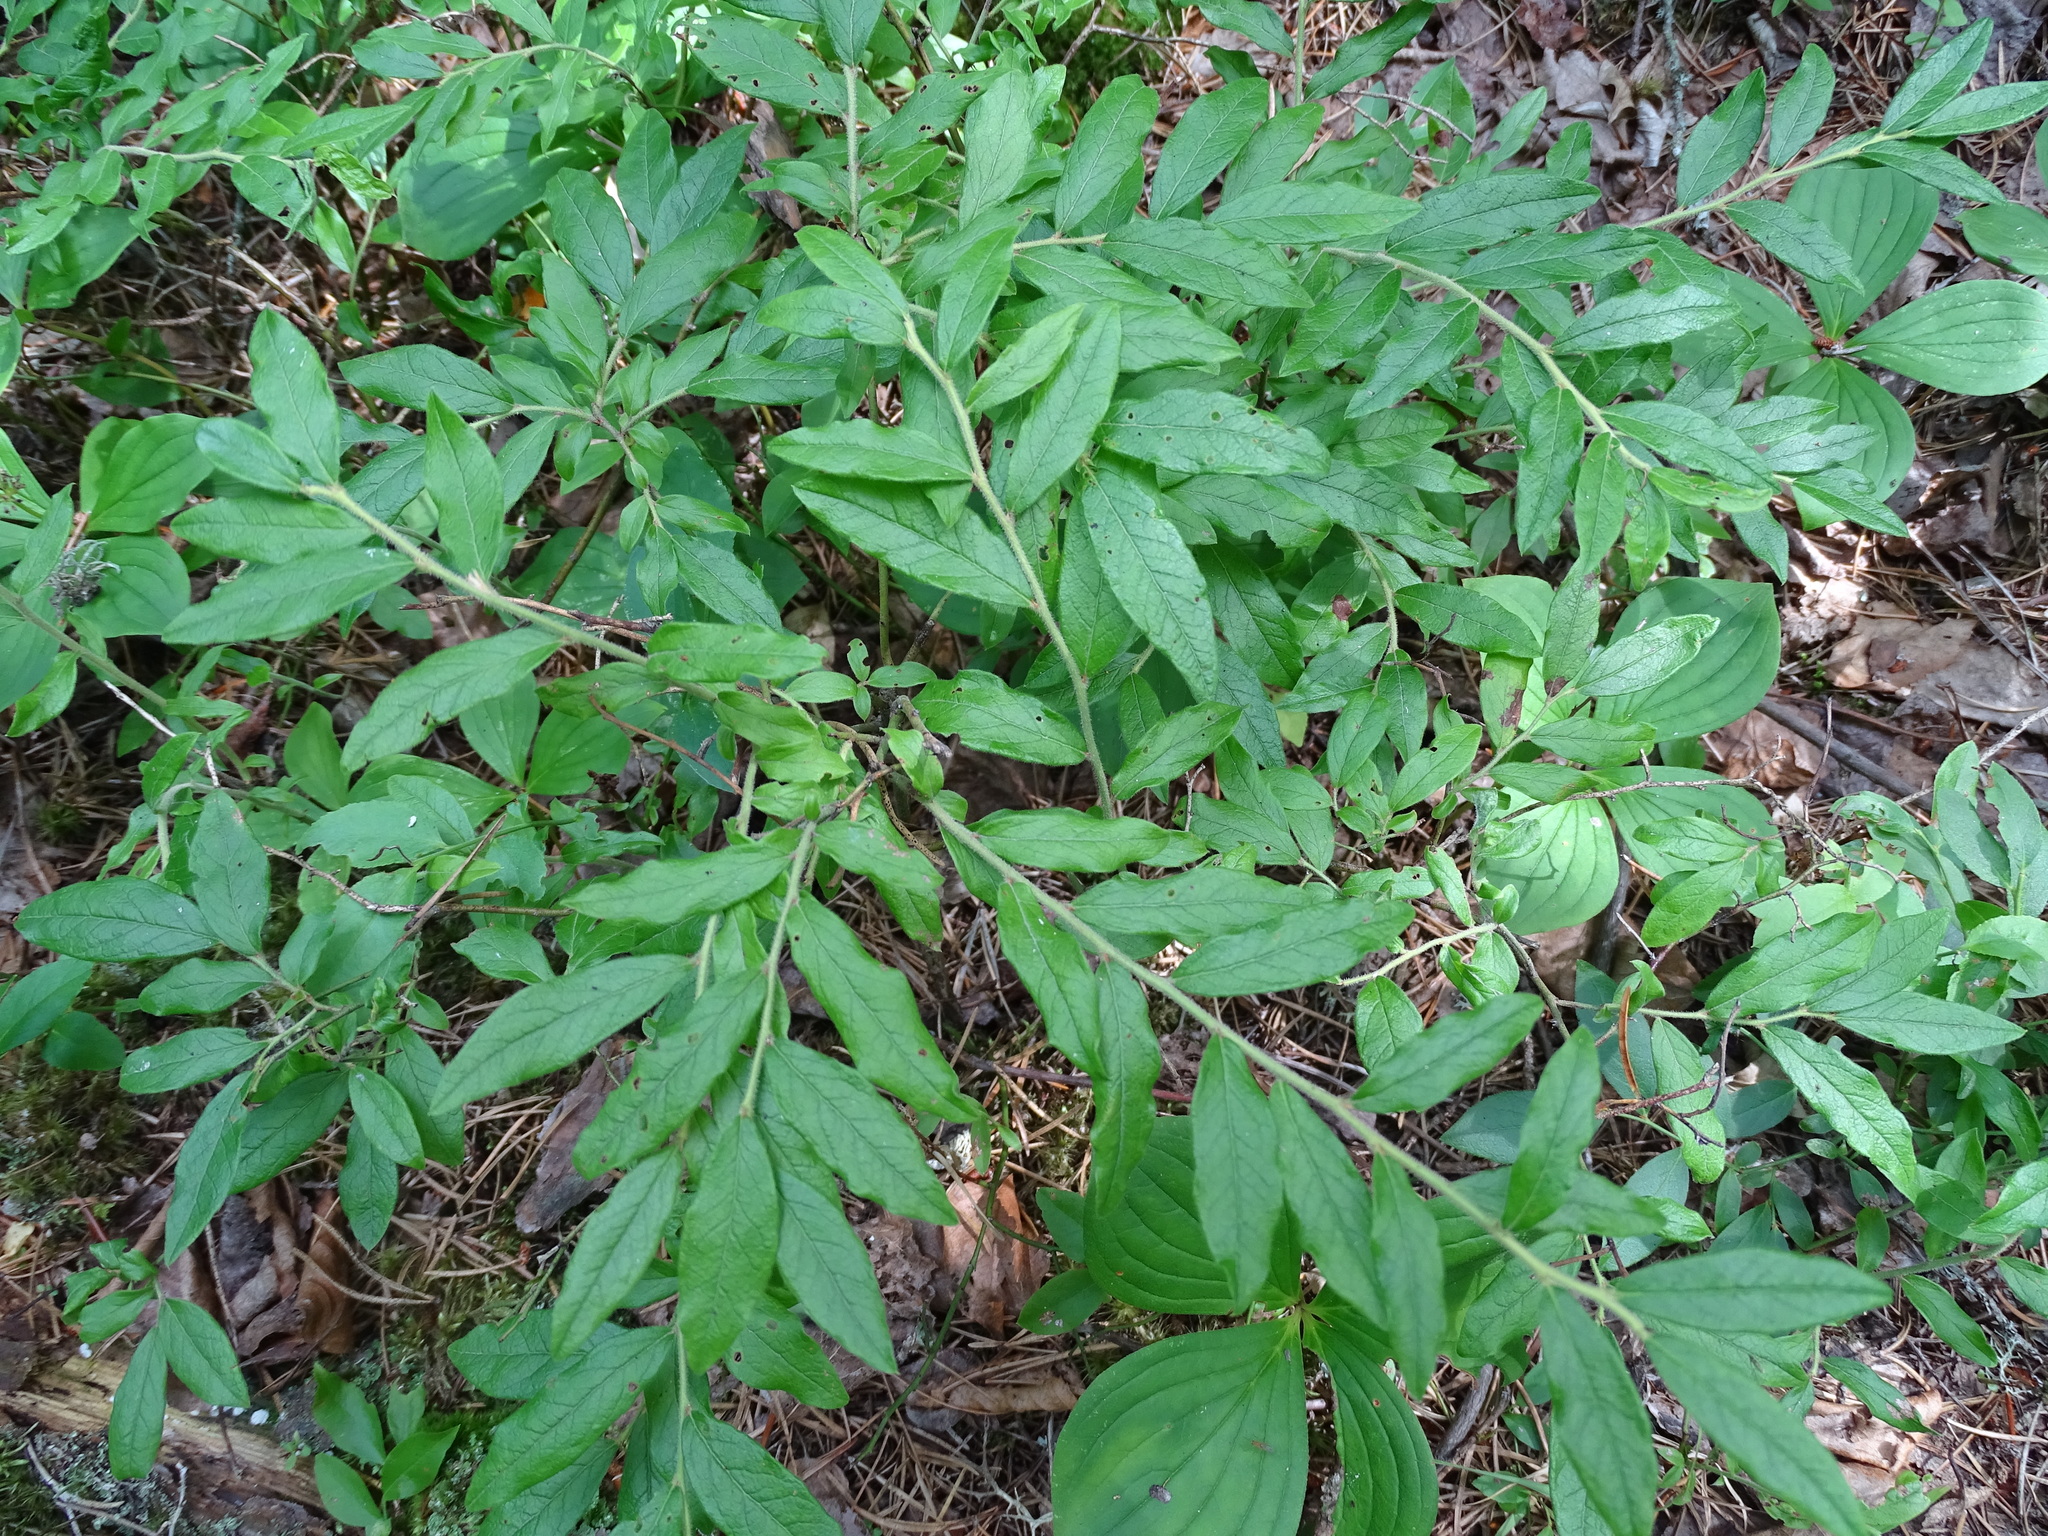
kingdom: Plantae
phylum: Tracheophyta
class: Magnoliopsida
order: Ericales
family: Ericaceae
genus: Vaccinium
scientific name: Vaccinium myrtilloides
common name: Canada blueberry
